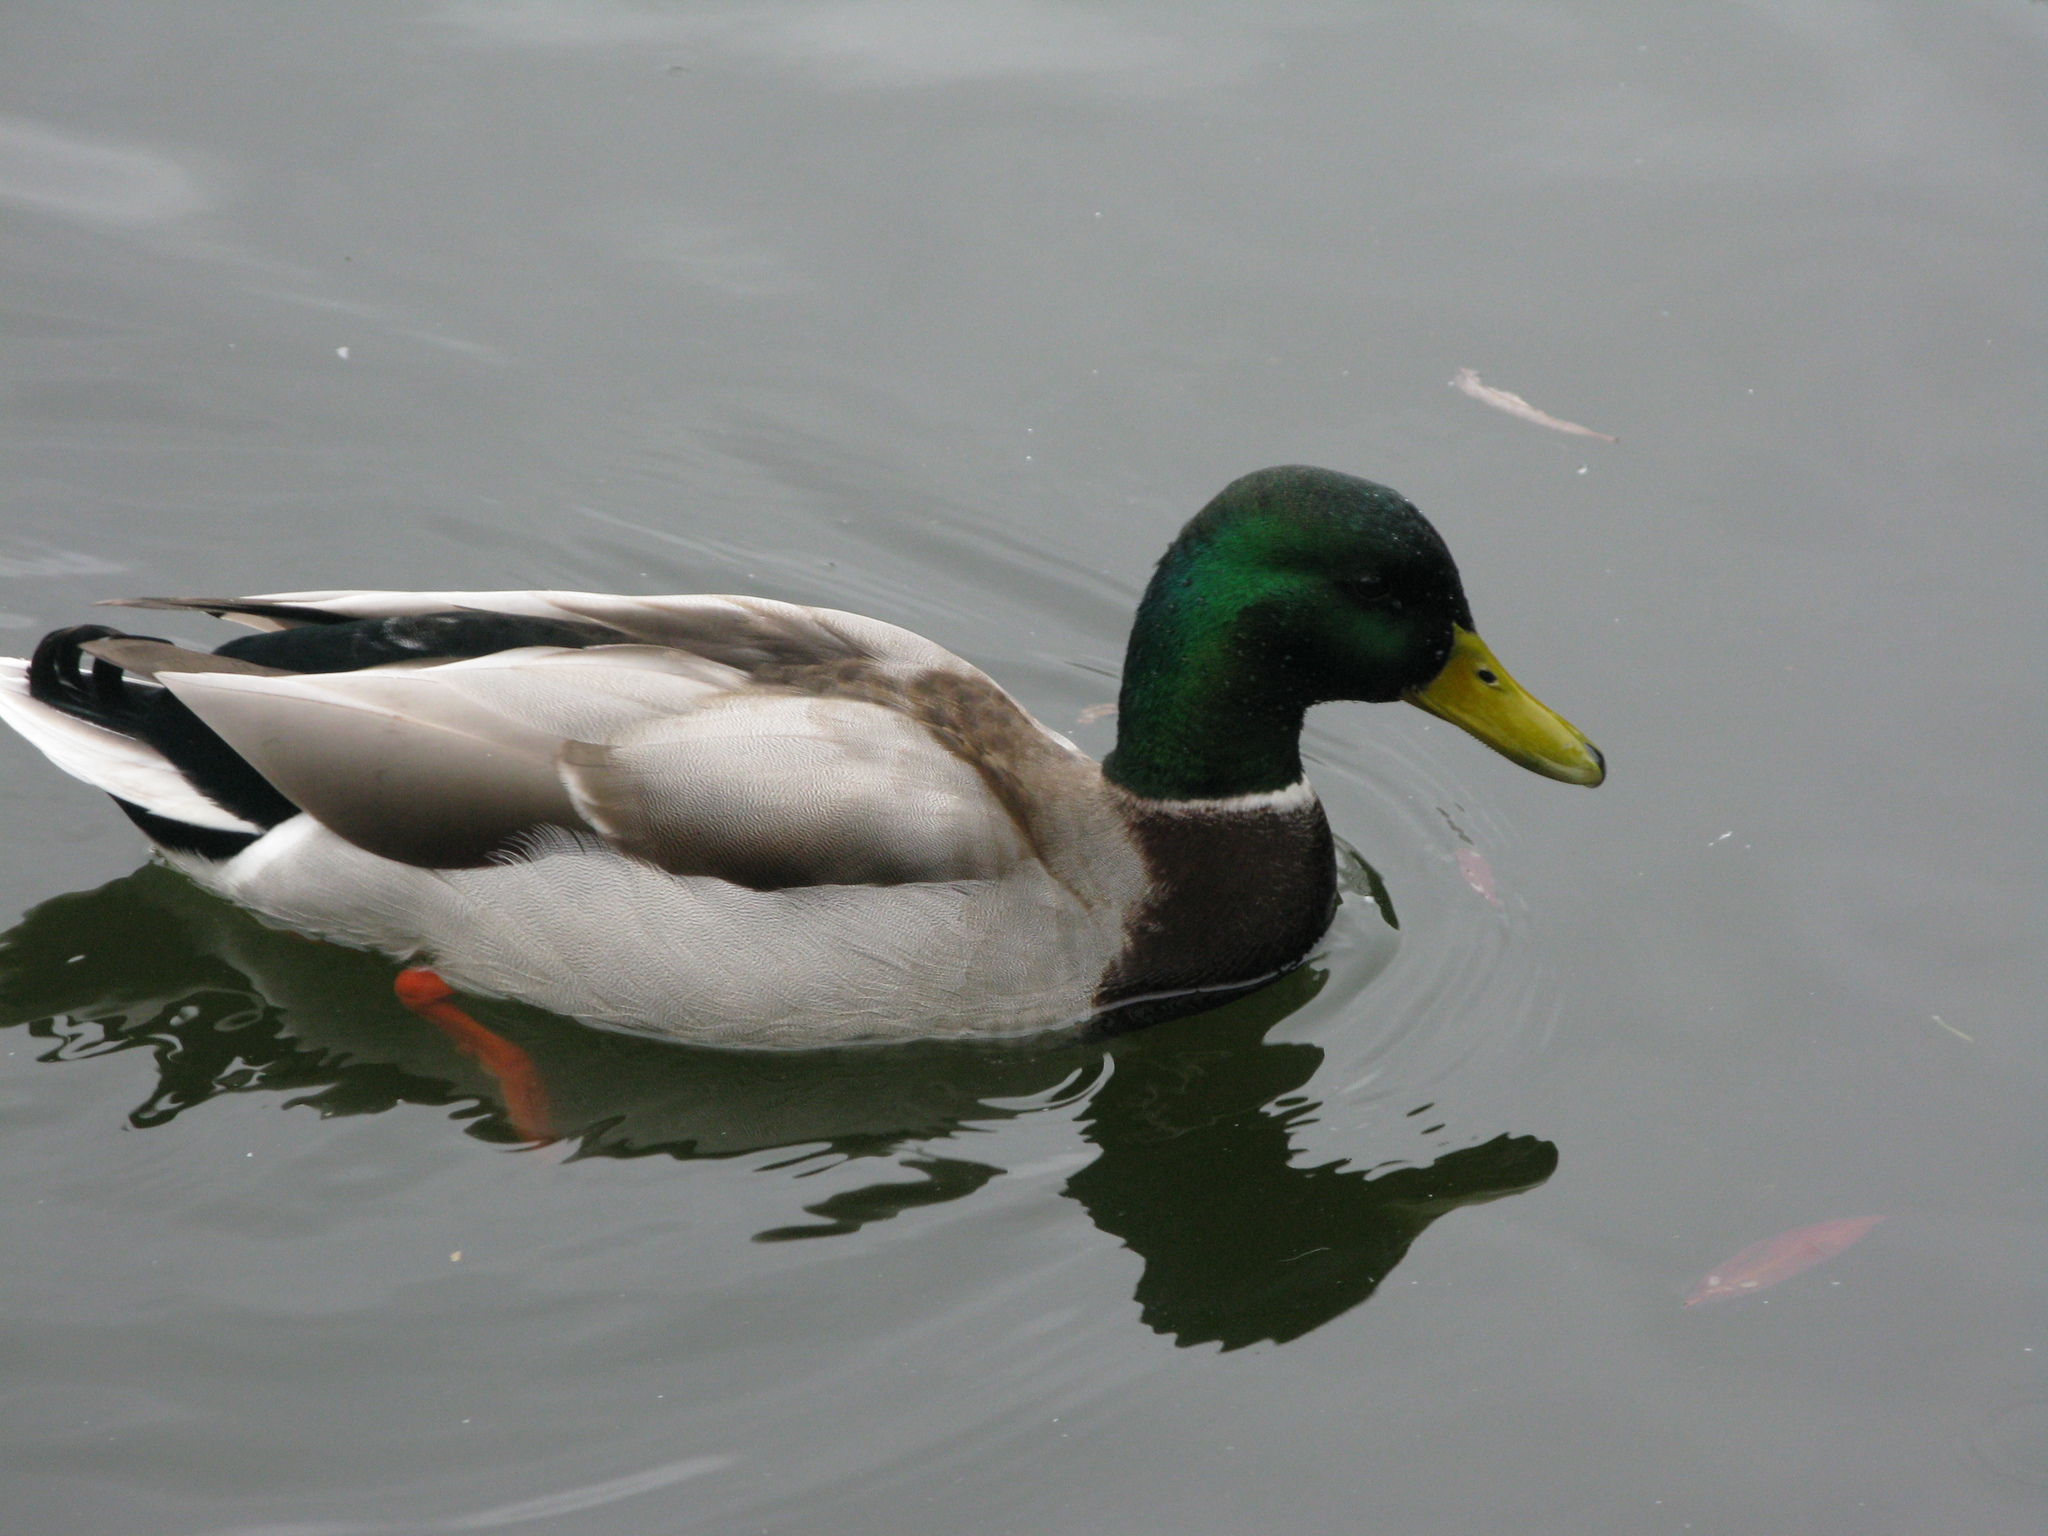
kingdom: Animalia
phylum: Chordata
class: Aves
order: Anseriformes
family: Anatidae
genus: Anas
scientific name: Anas platyrhynchos
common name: Mallard
